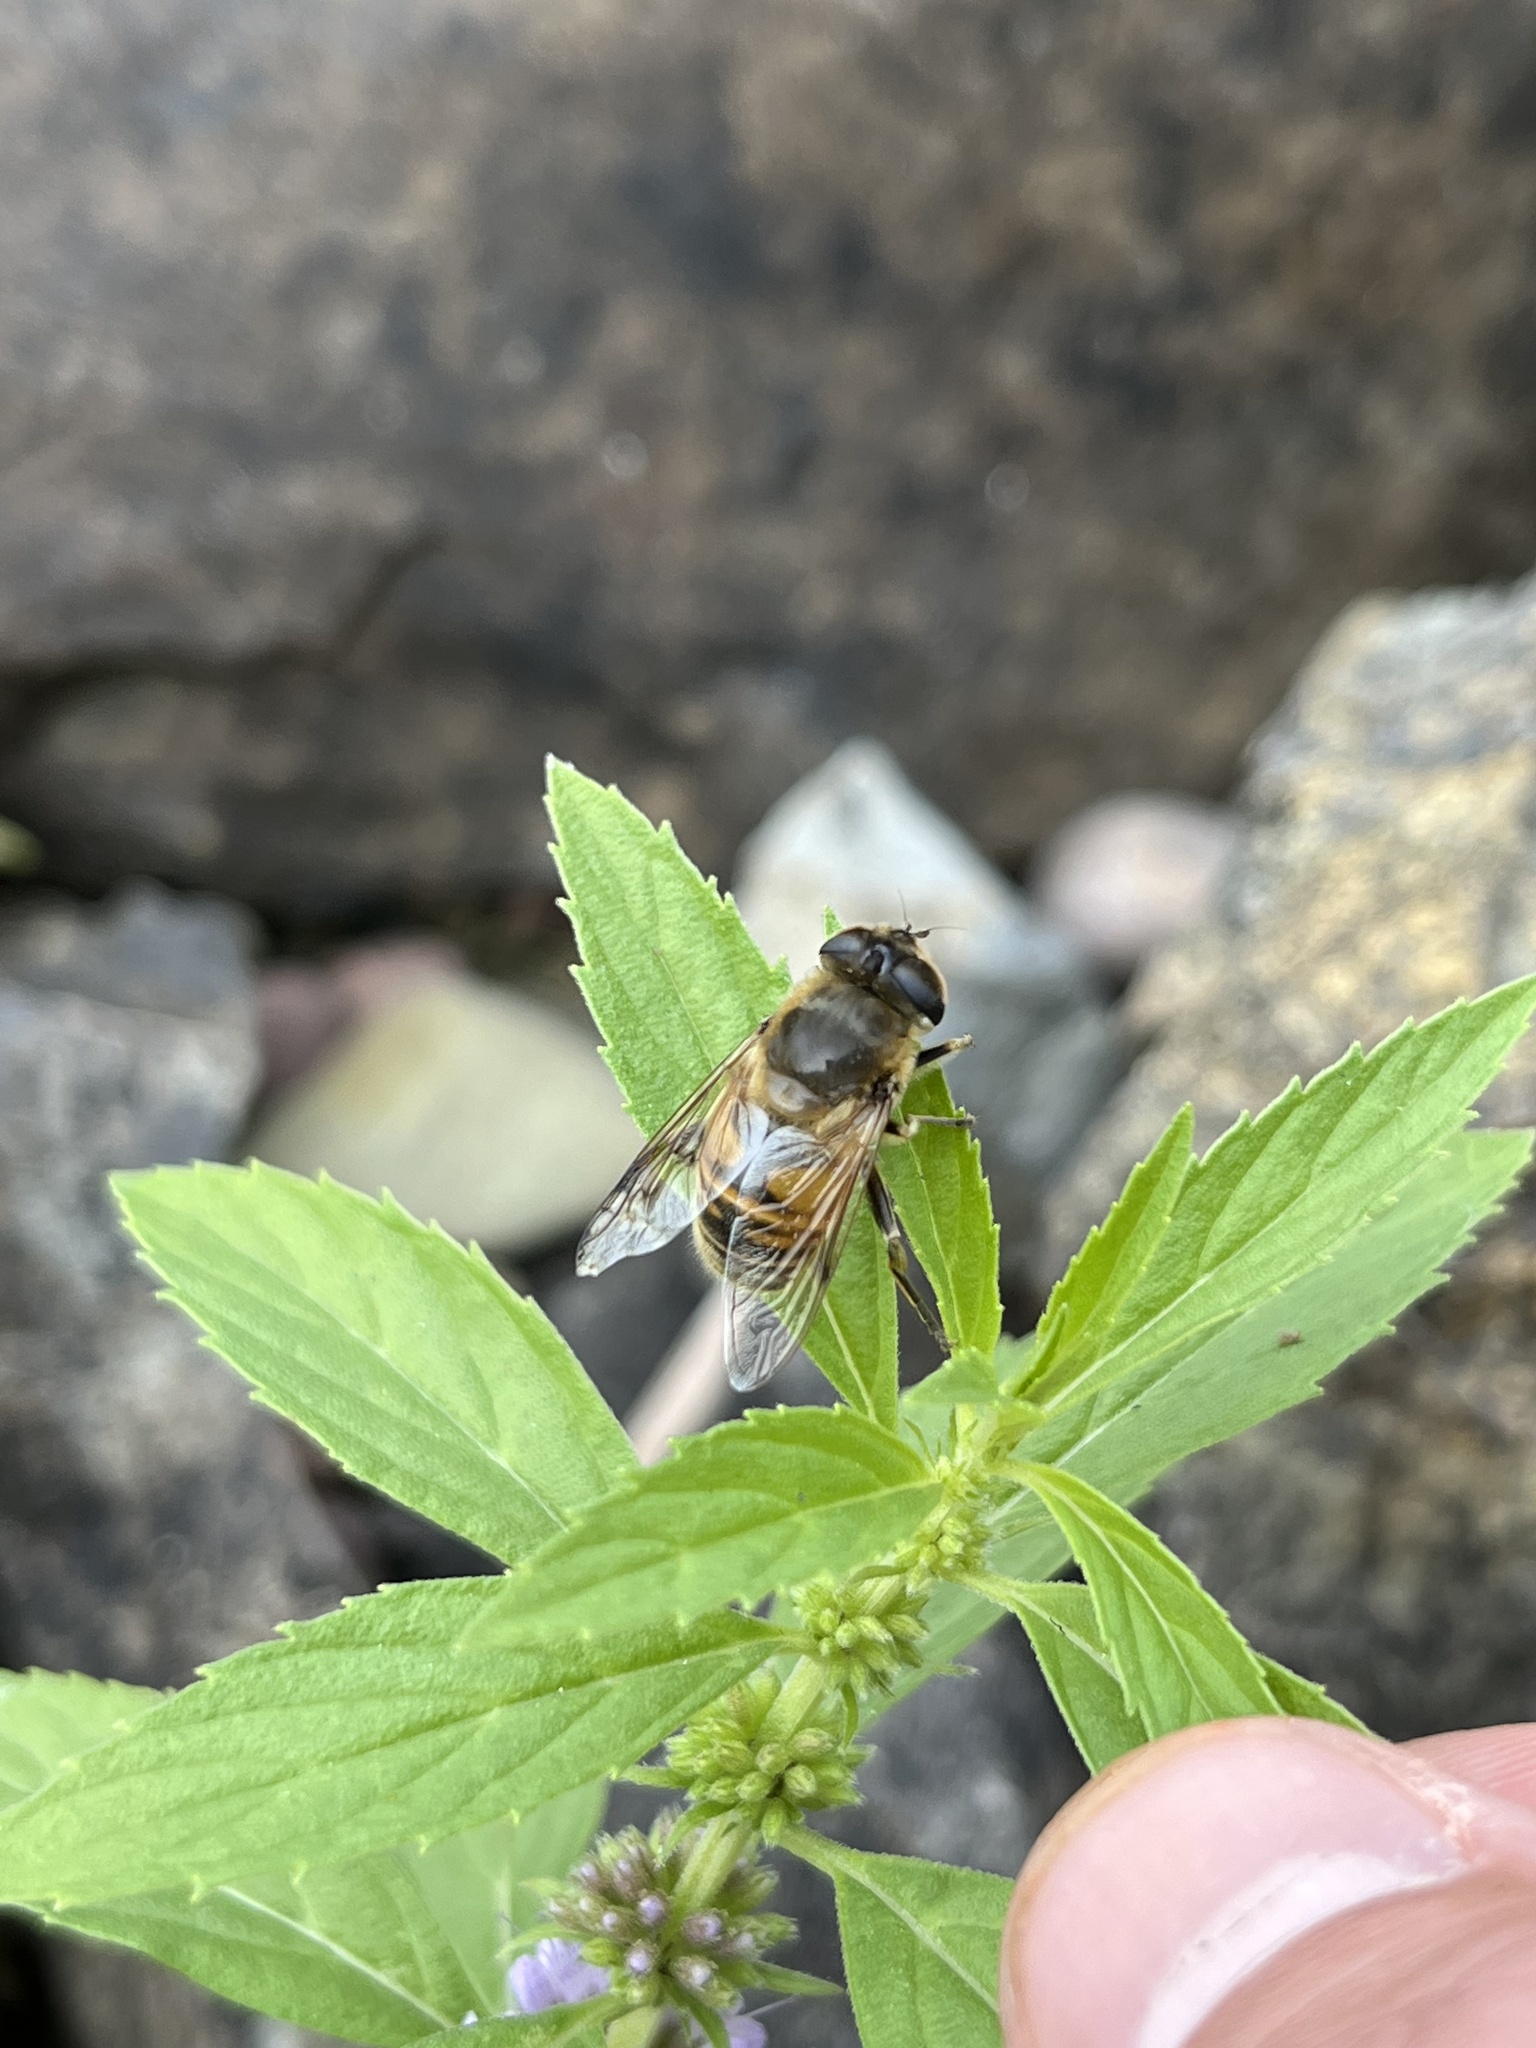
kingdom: Animalia
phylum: Arthropoda
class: Insecta
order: Diptera
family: Syrphidae
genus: Eristalis
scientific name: Eristalis tenax
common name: Drone fly
